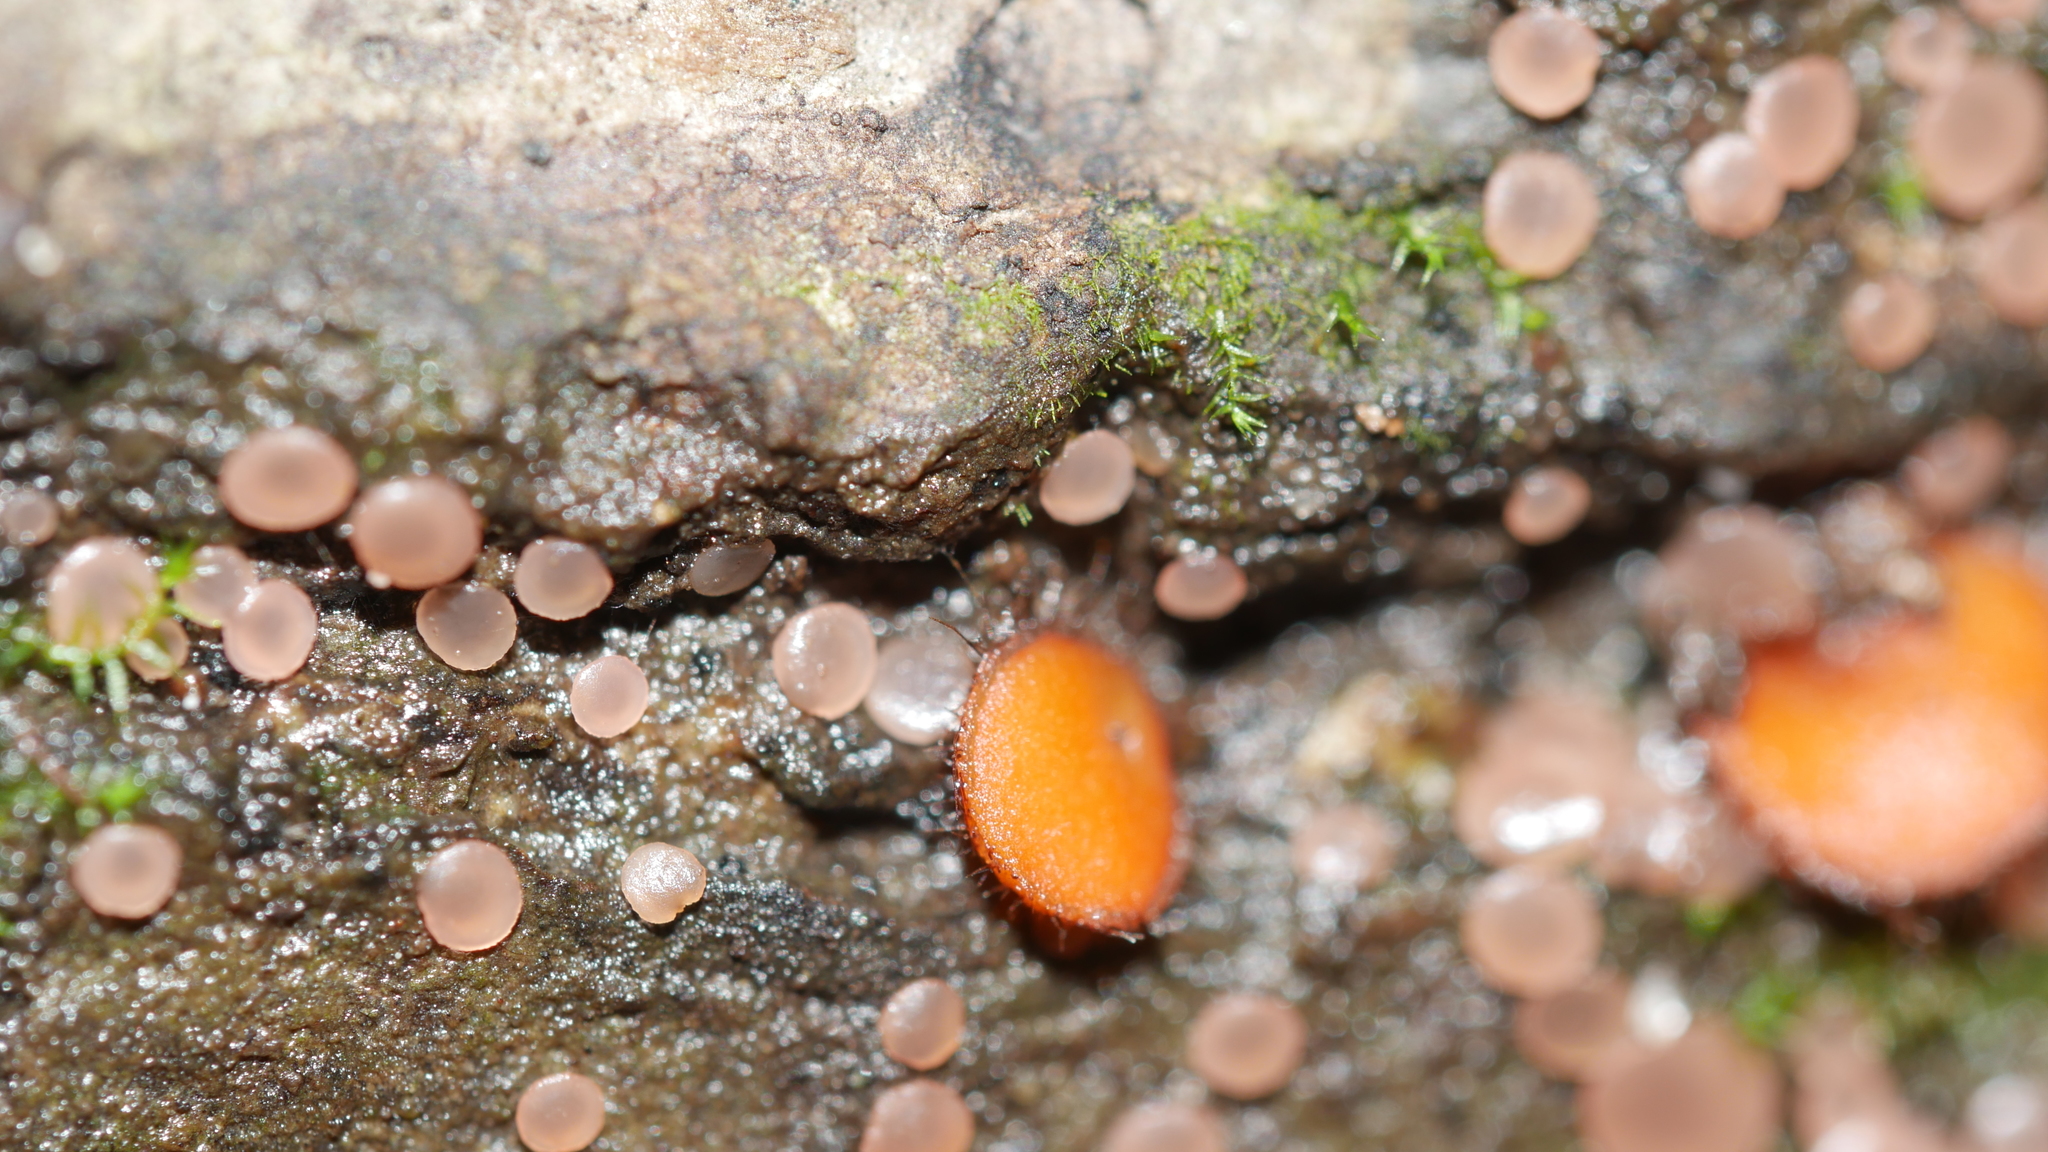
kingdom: Fungi
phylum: Ascomycota
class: Pezizomycetes
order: Pezizales
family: Pyronemataceae
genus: Scutellinia
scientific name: Scutellinia
